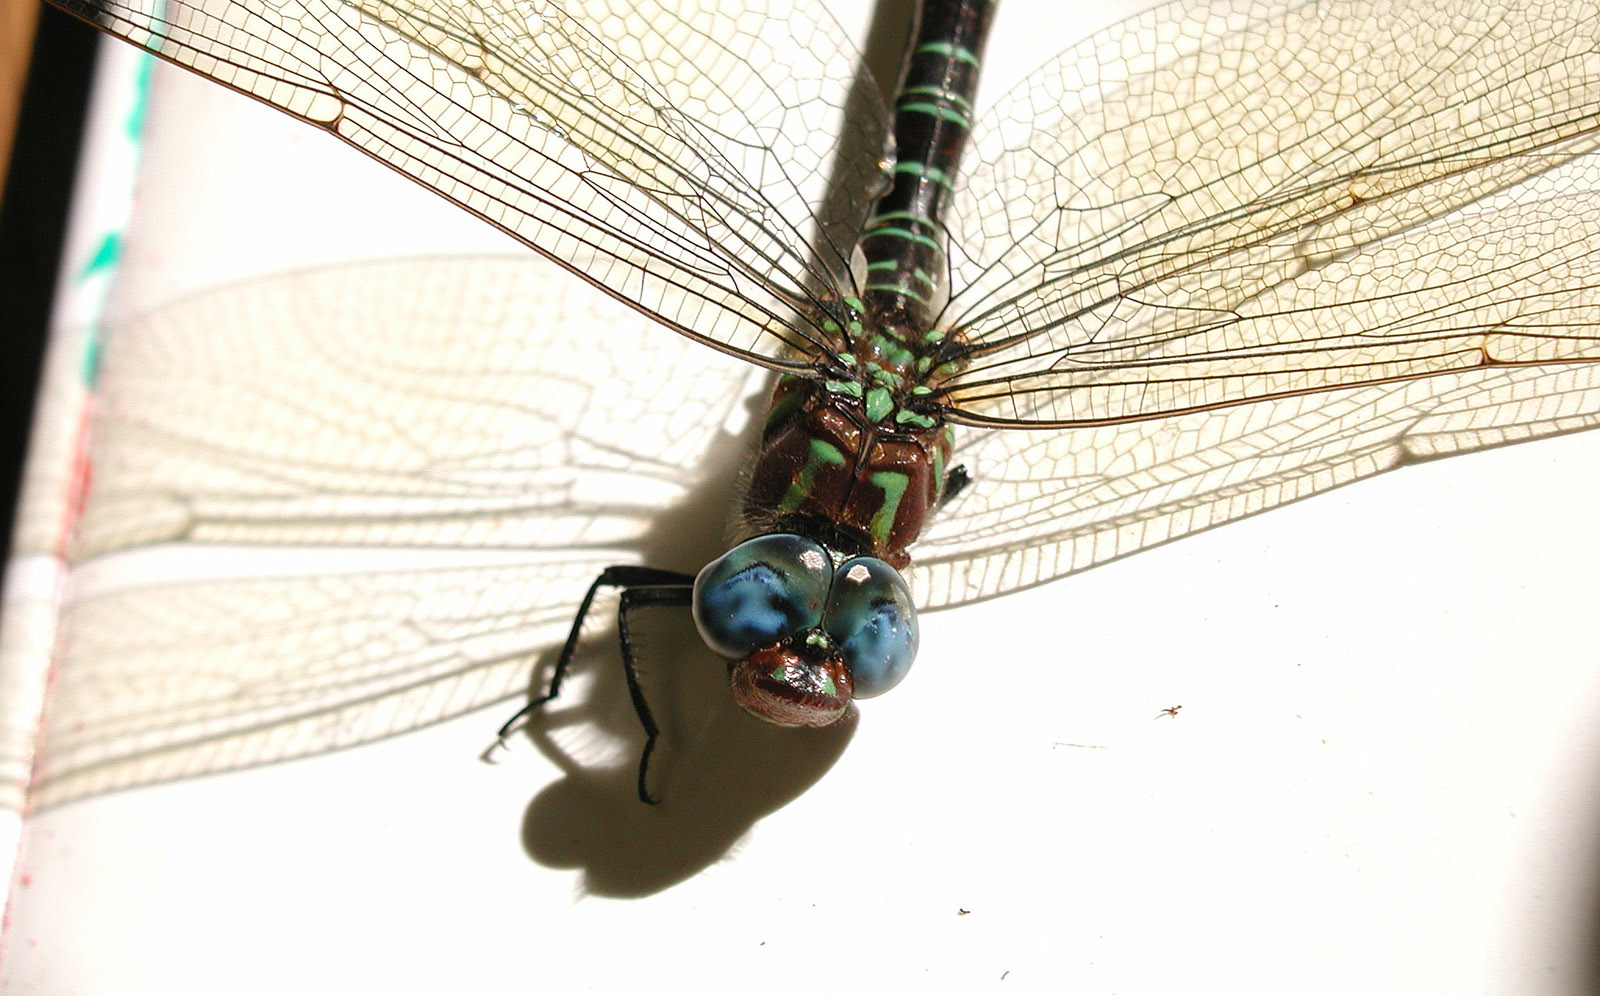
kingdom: Animalia
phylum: Arthropoda
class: Insecta
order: Odonata
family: Aeshnidae
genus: Epiaeschna
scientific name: Epiaeschna heros
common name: Swamp darner
